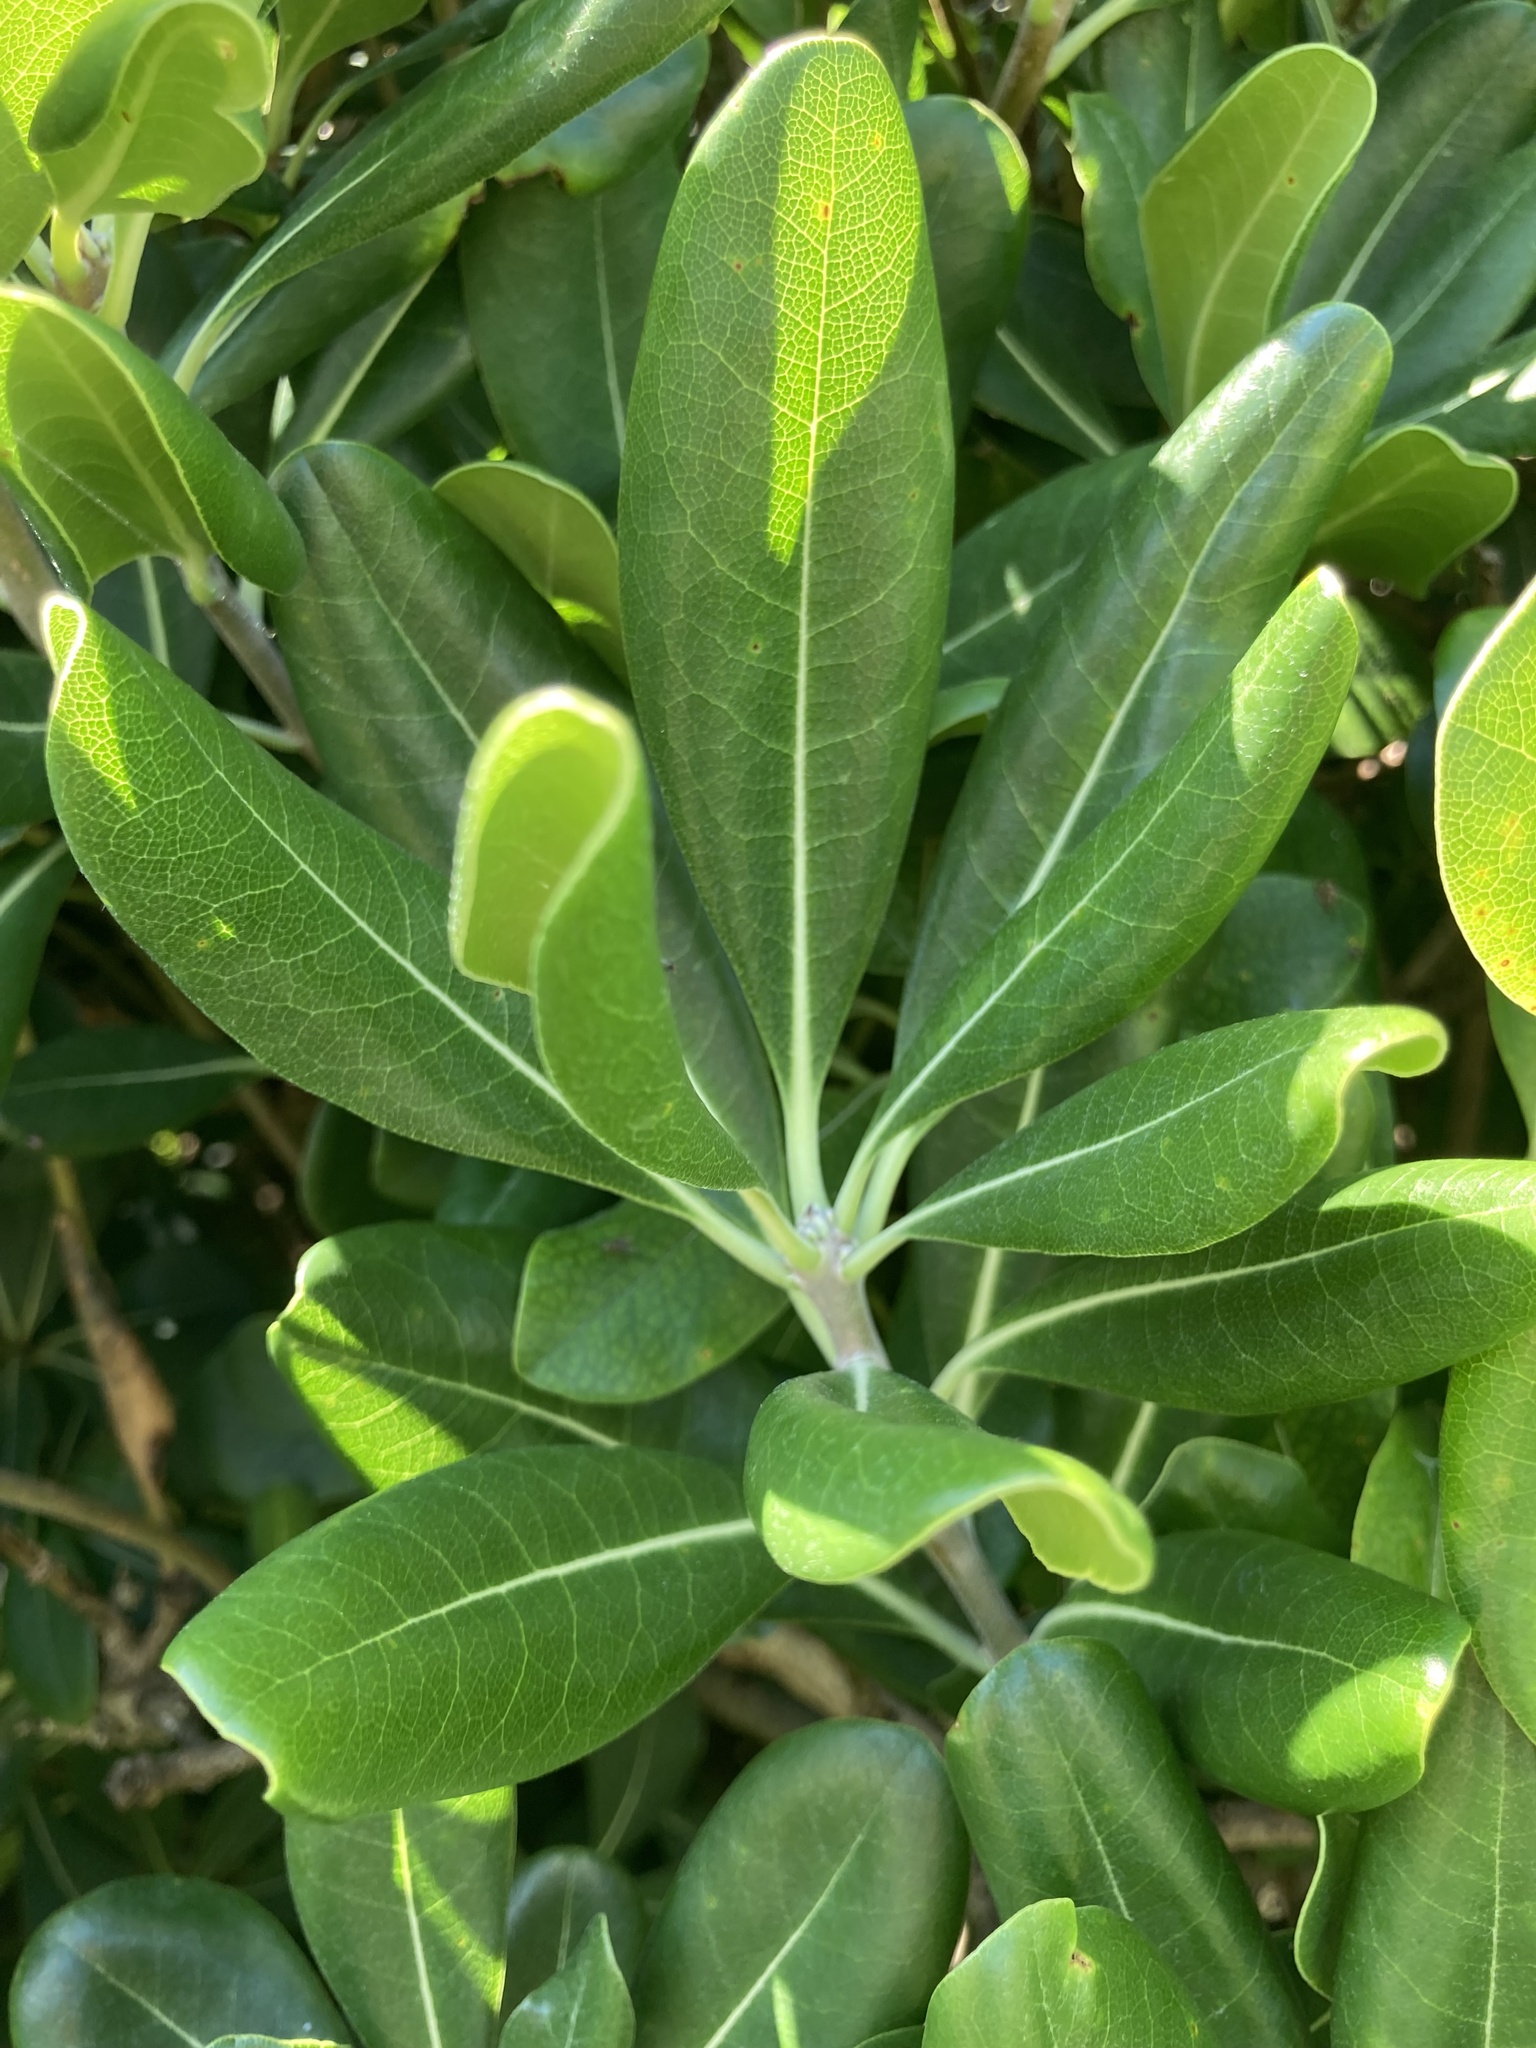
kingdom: Plantae
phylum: Tracheophyta
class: Magnoliopsida
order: Apiales
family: Pittosporaceae
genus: Pittosporum
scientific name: Pittosporum tobira
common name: Japanese cheesewood
